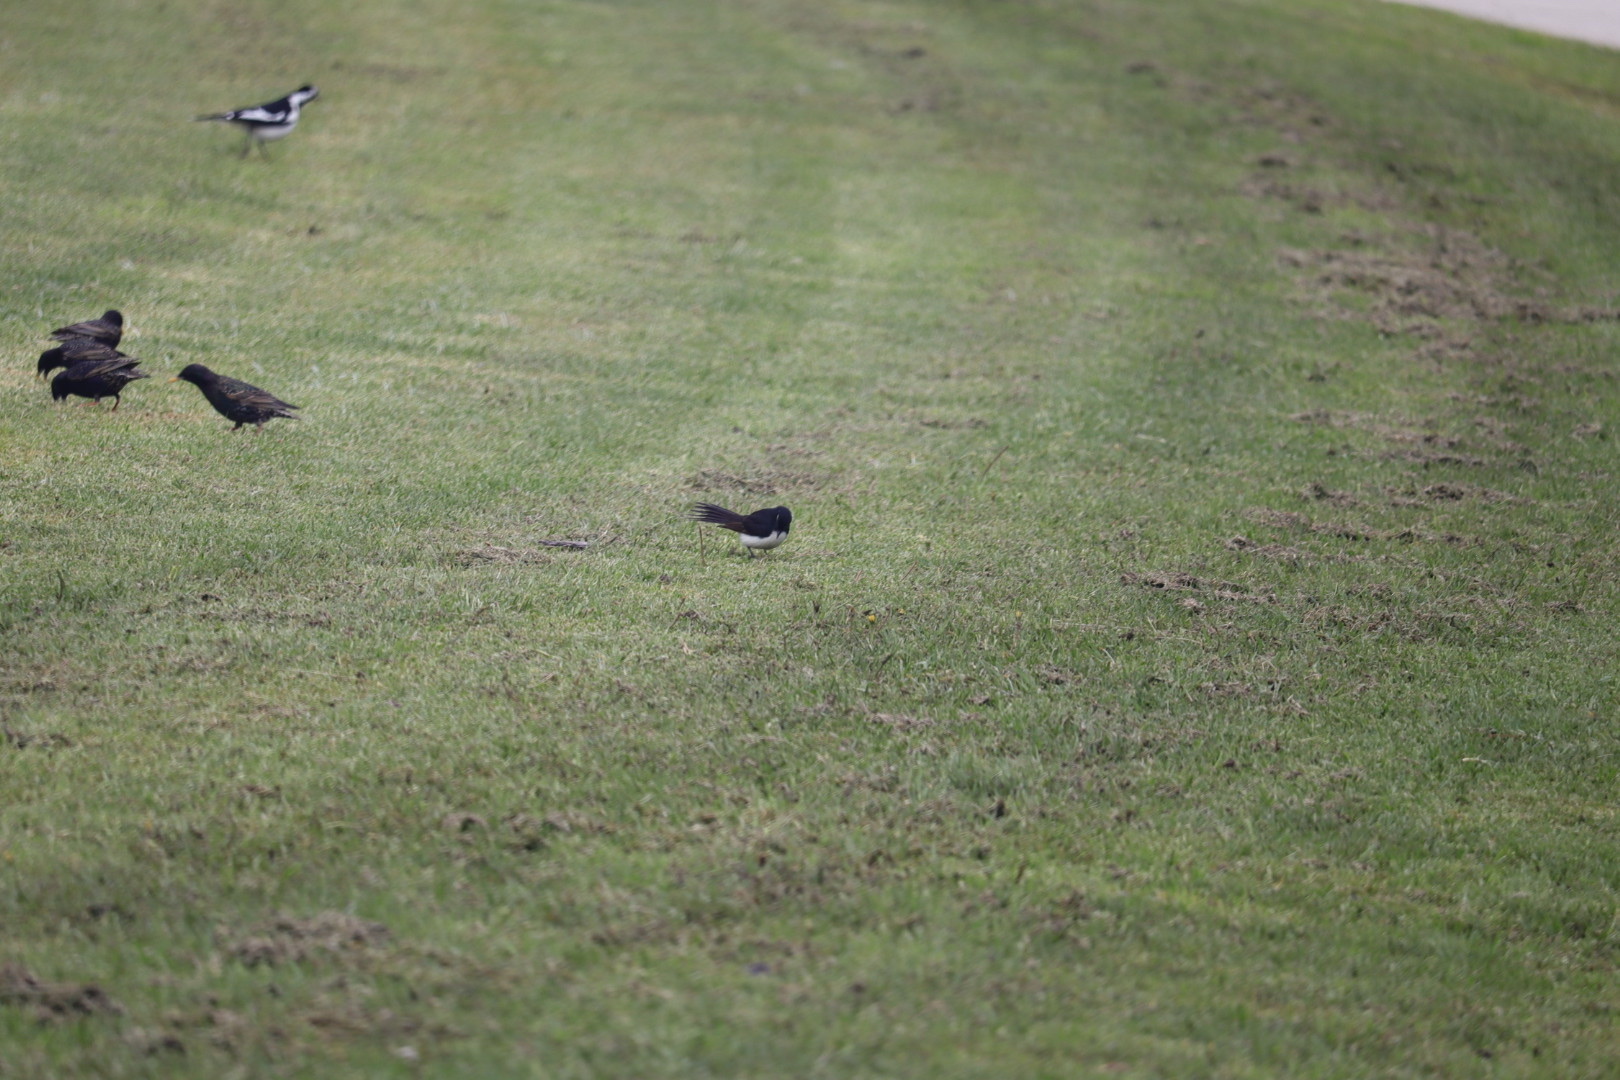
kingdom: Animalia
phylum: Chordata
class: Aves
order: Passeriformes
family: Rhipiduridae
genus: Rhipidura
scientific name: Rhipidura leucophrys
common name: Willie wagtail
